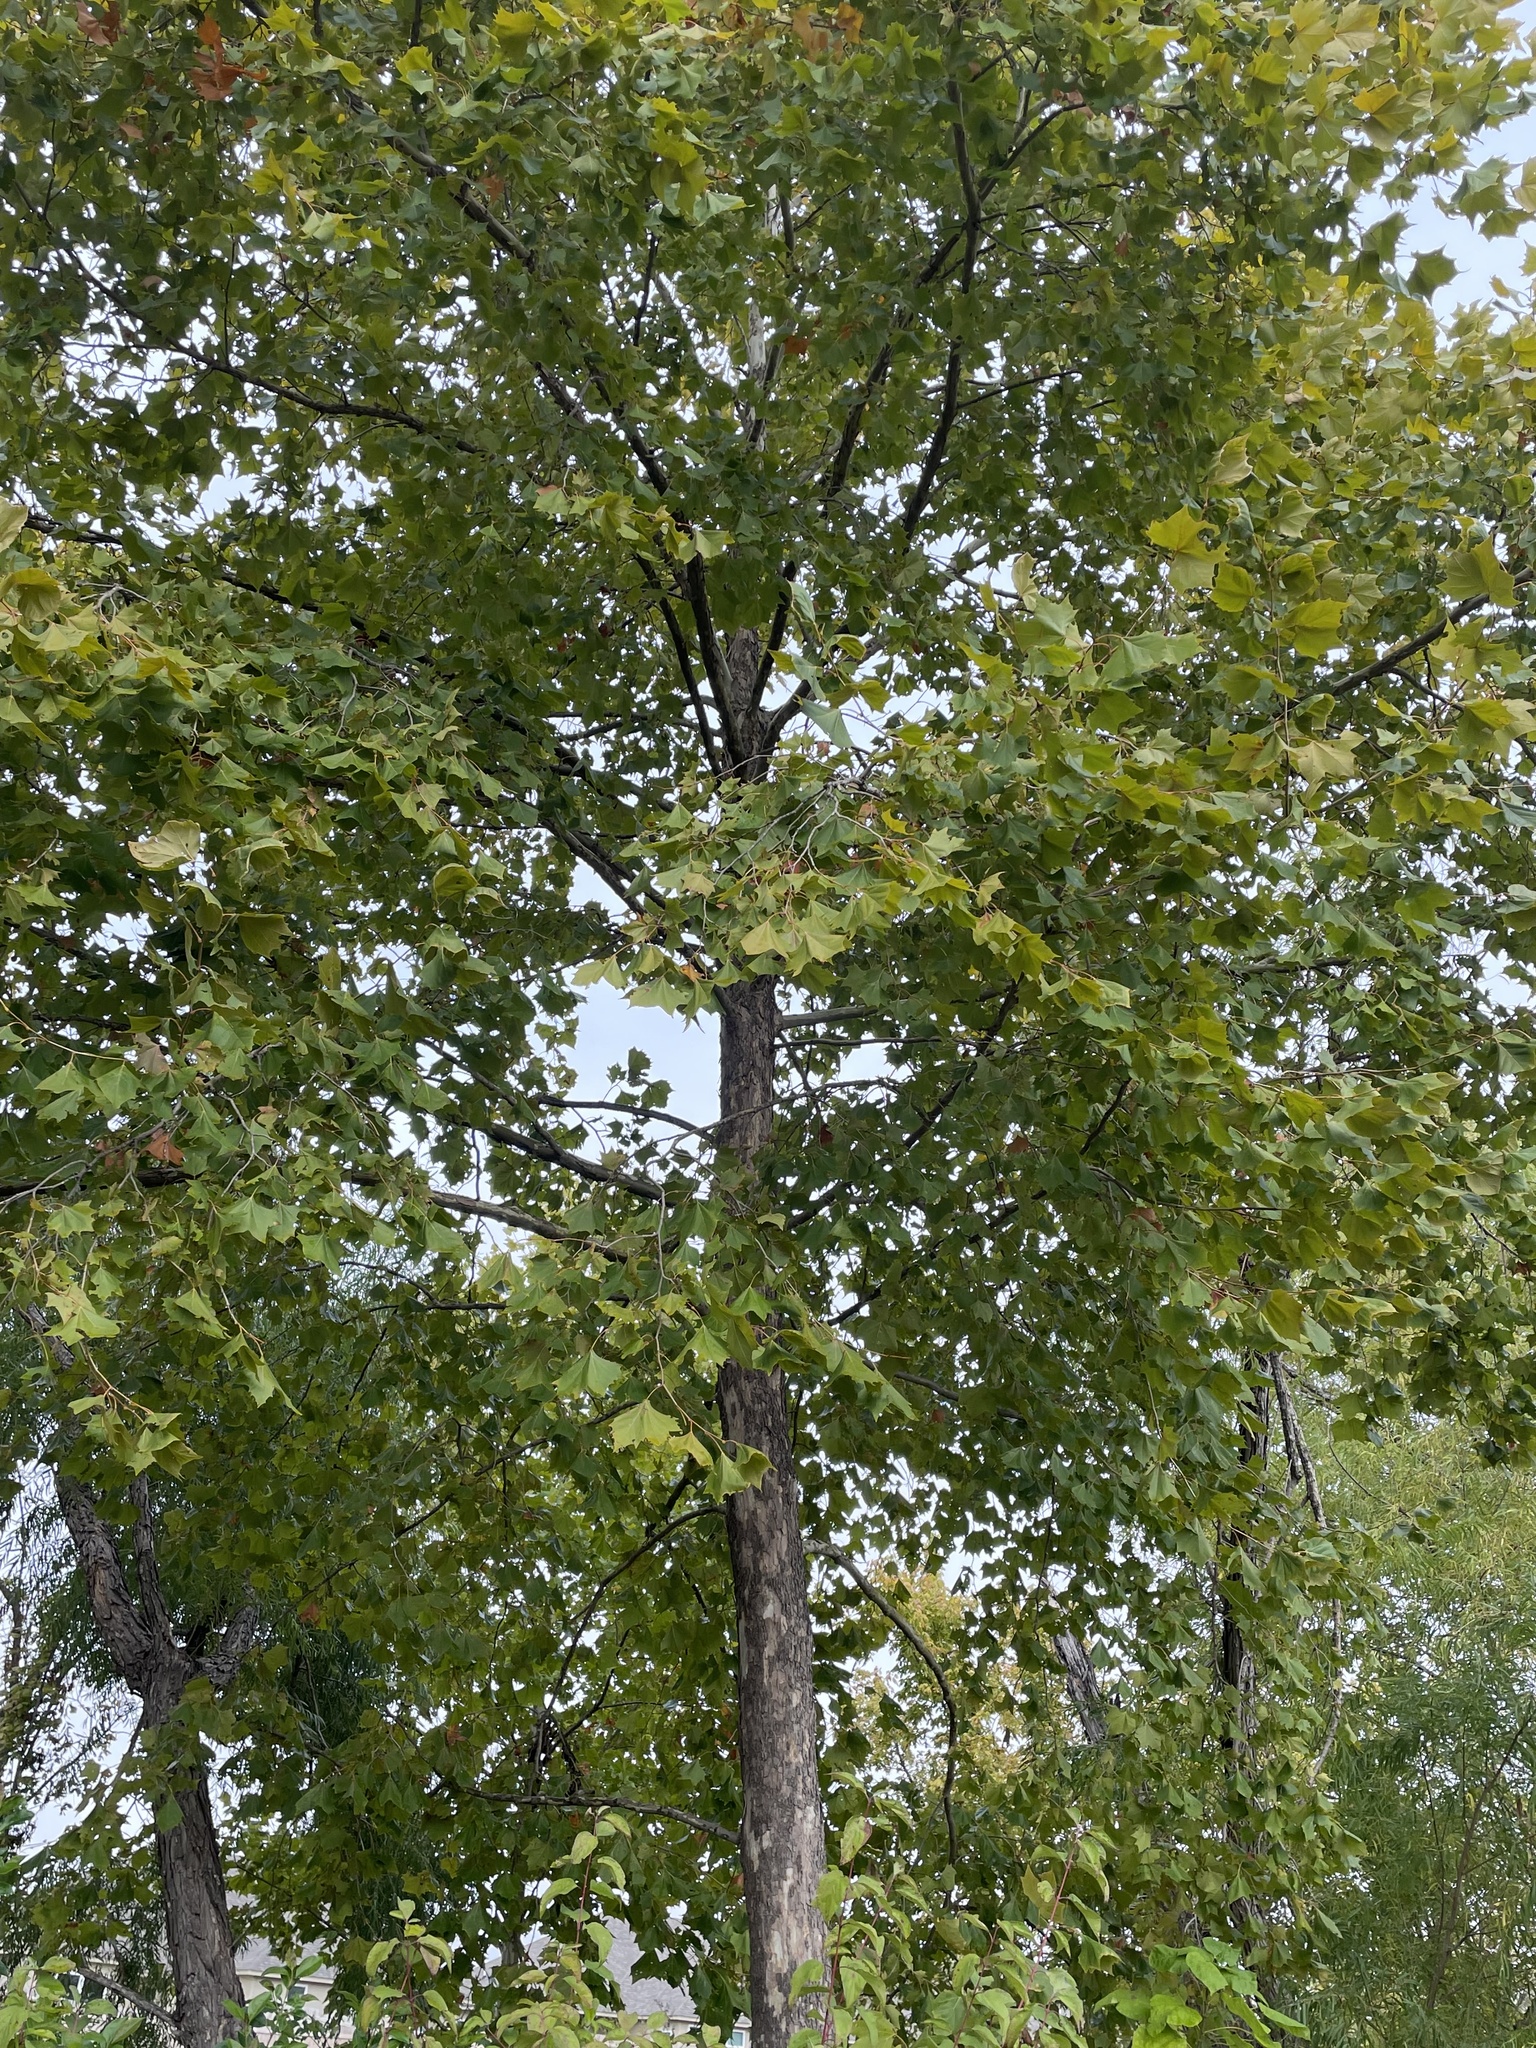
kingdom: Plantae
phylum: Tracheophyta
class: Magnoliopsida
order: Proteales
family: Platanaceae
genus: Platanus
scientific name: Platanus occidentalis
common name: American sycamore
